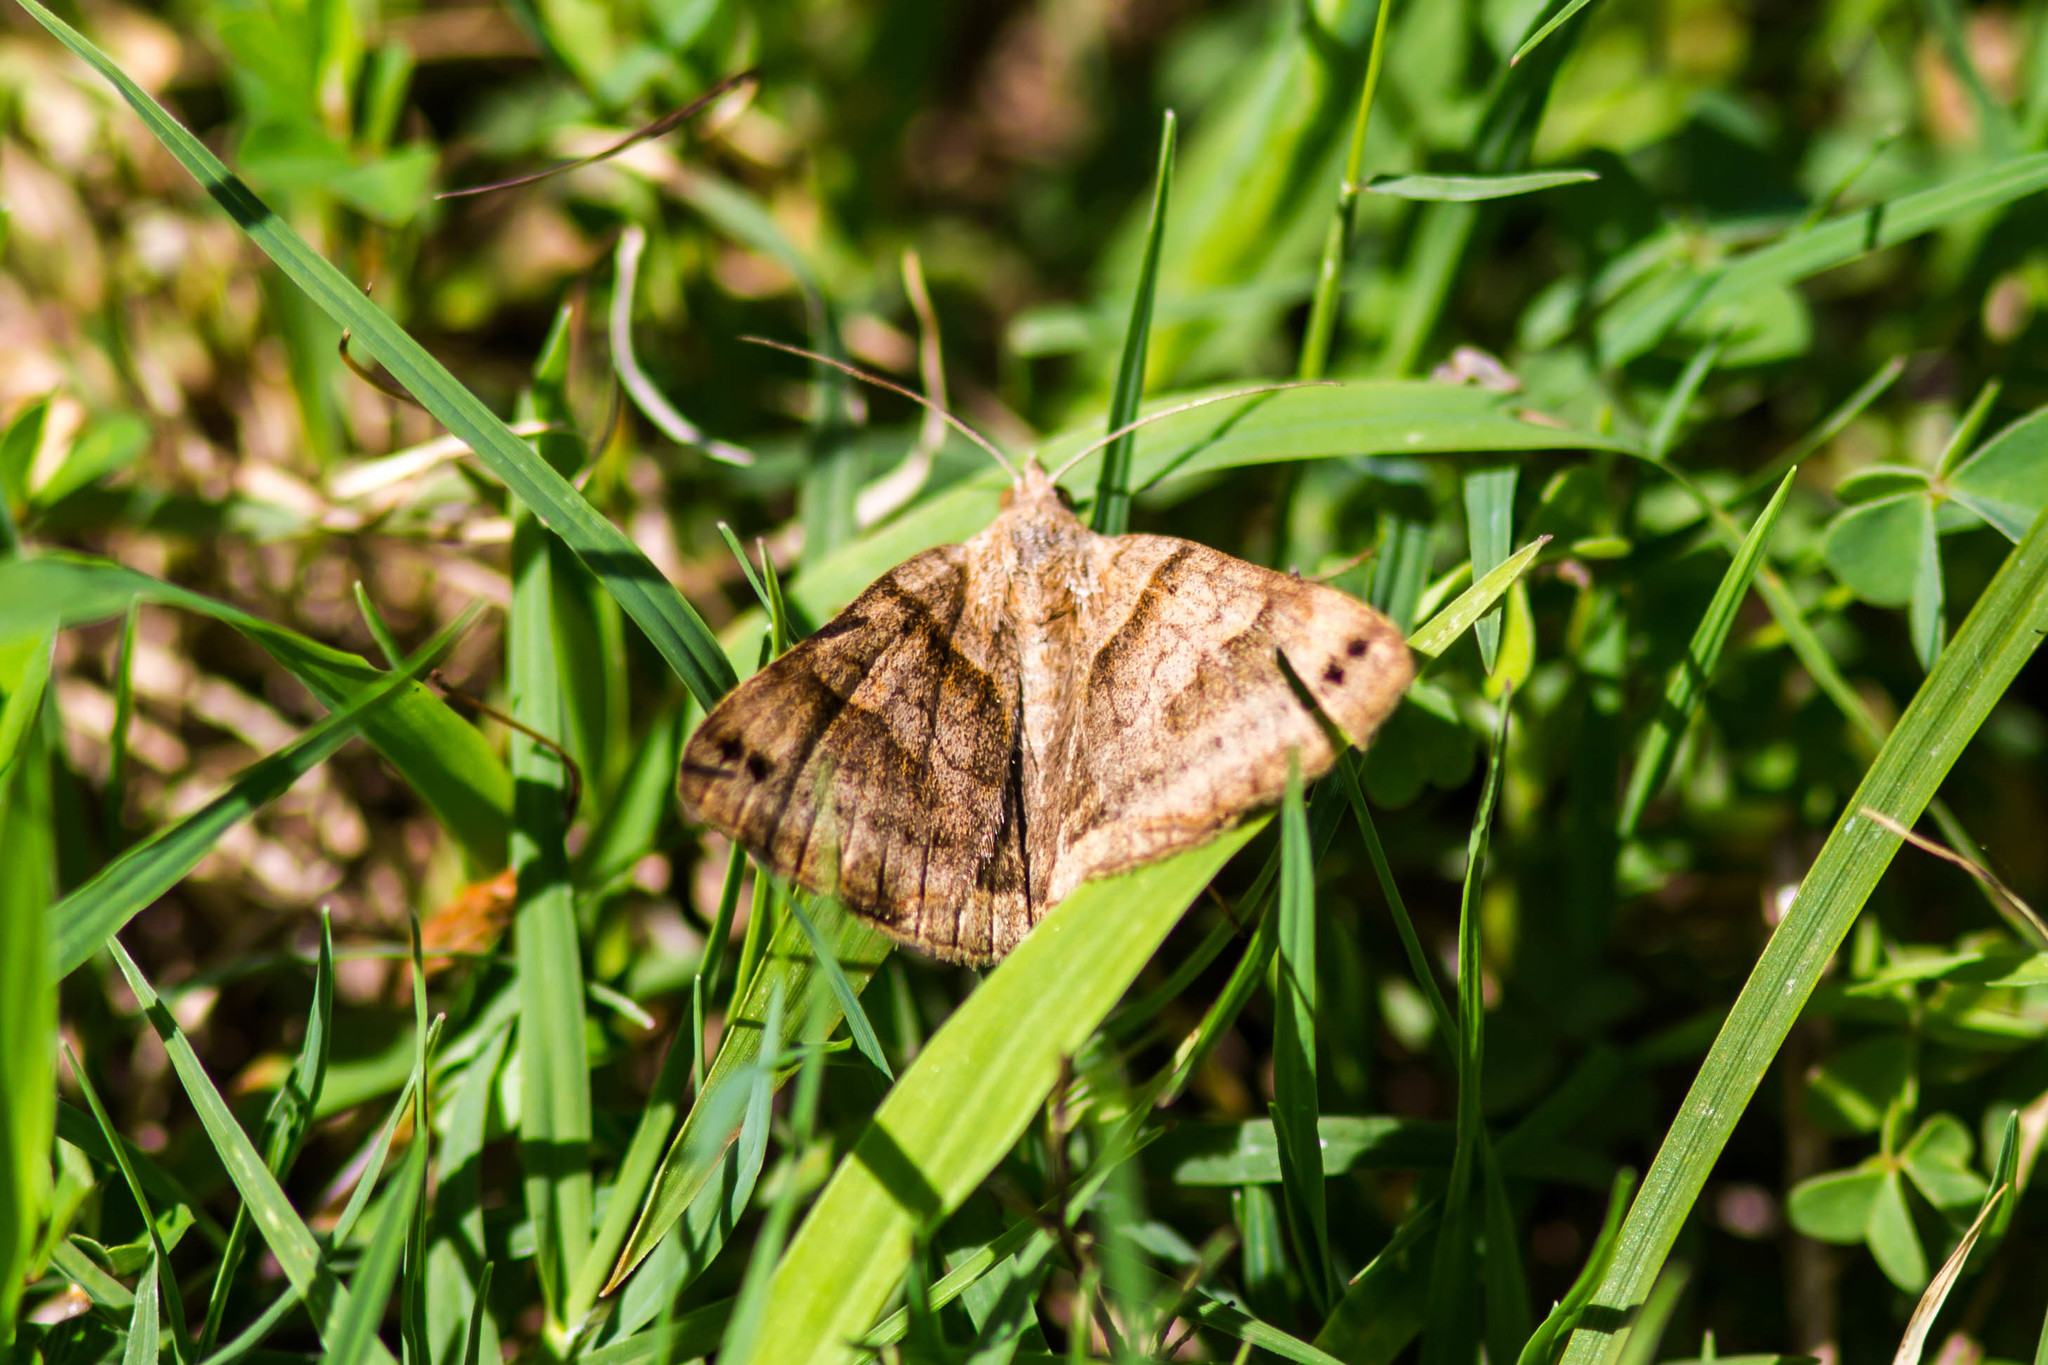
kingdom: Animalia
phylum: Arthropoda
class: Insecta
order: Lepidoptera
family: Erebidae
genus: Caenurgina
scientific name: Caenurgina crassiuscula
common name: Double-barred
